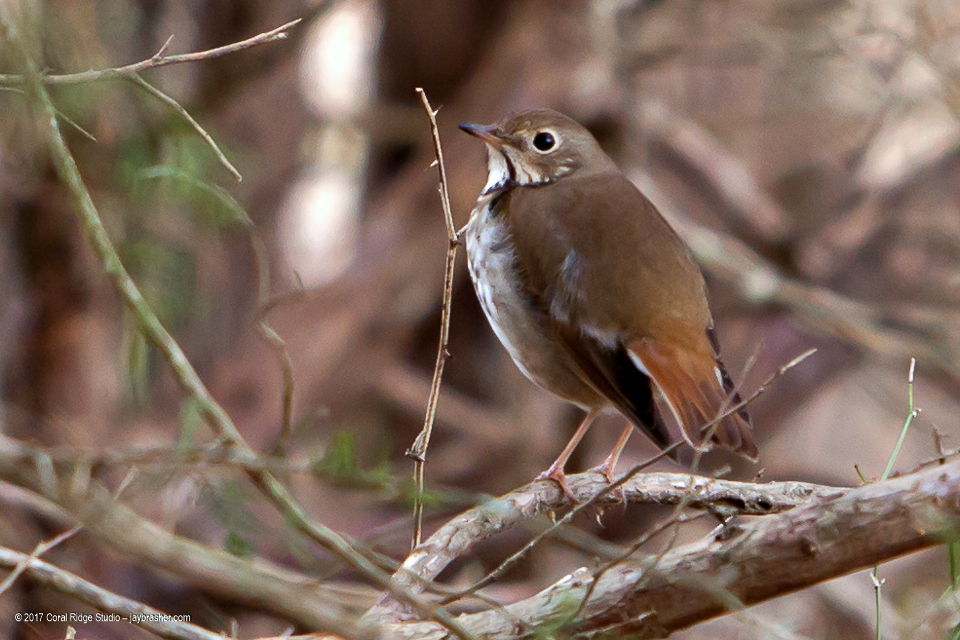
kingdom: Animalia
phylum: Chordata
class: Aves
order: Passeriformes
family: Turdidae
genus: Catharus
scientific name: Catharus guttatus
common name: Hermit thrush
